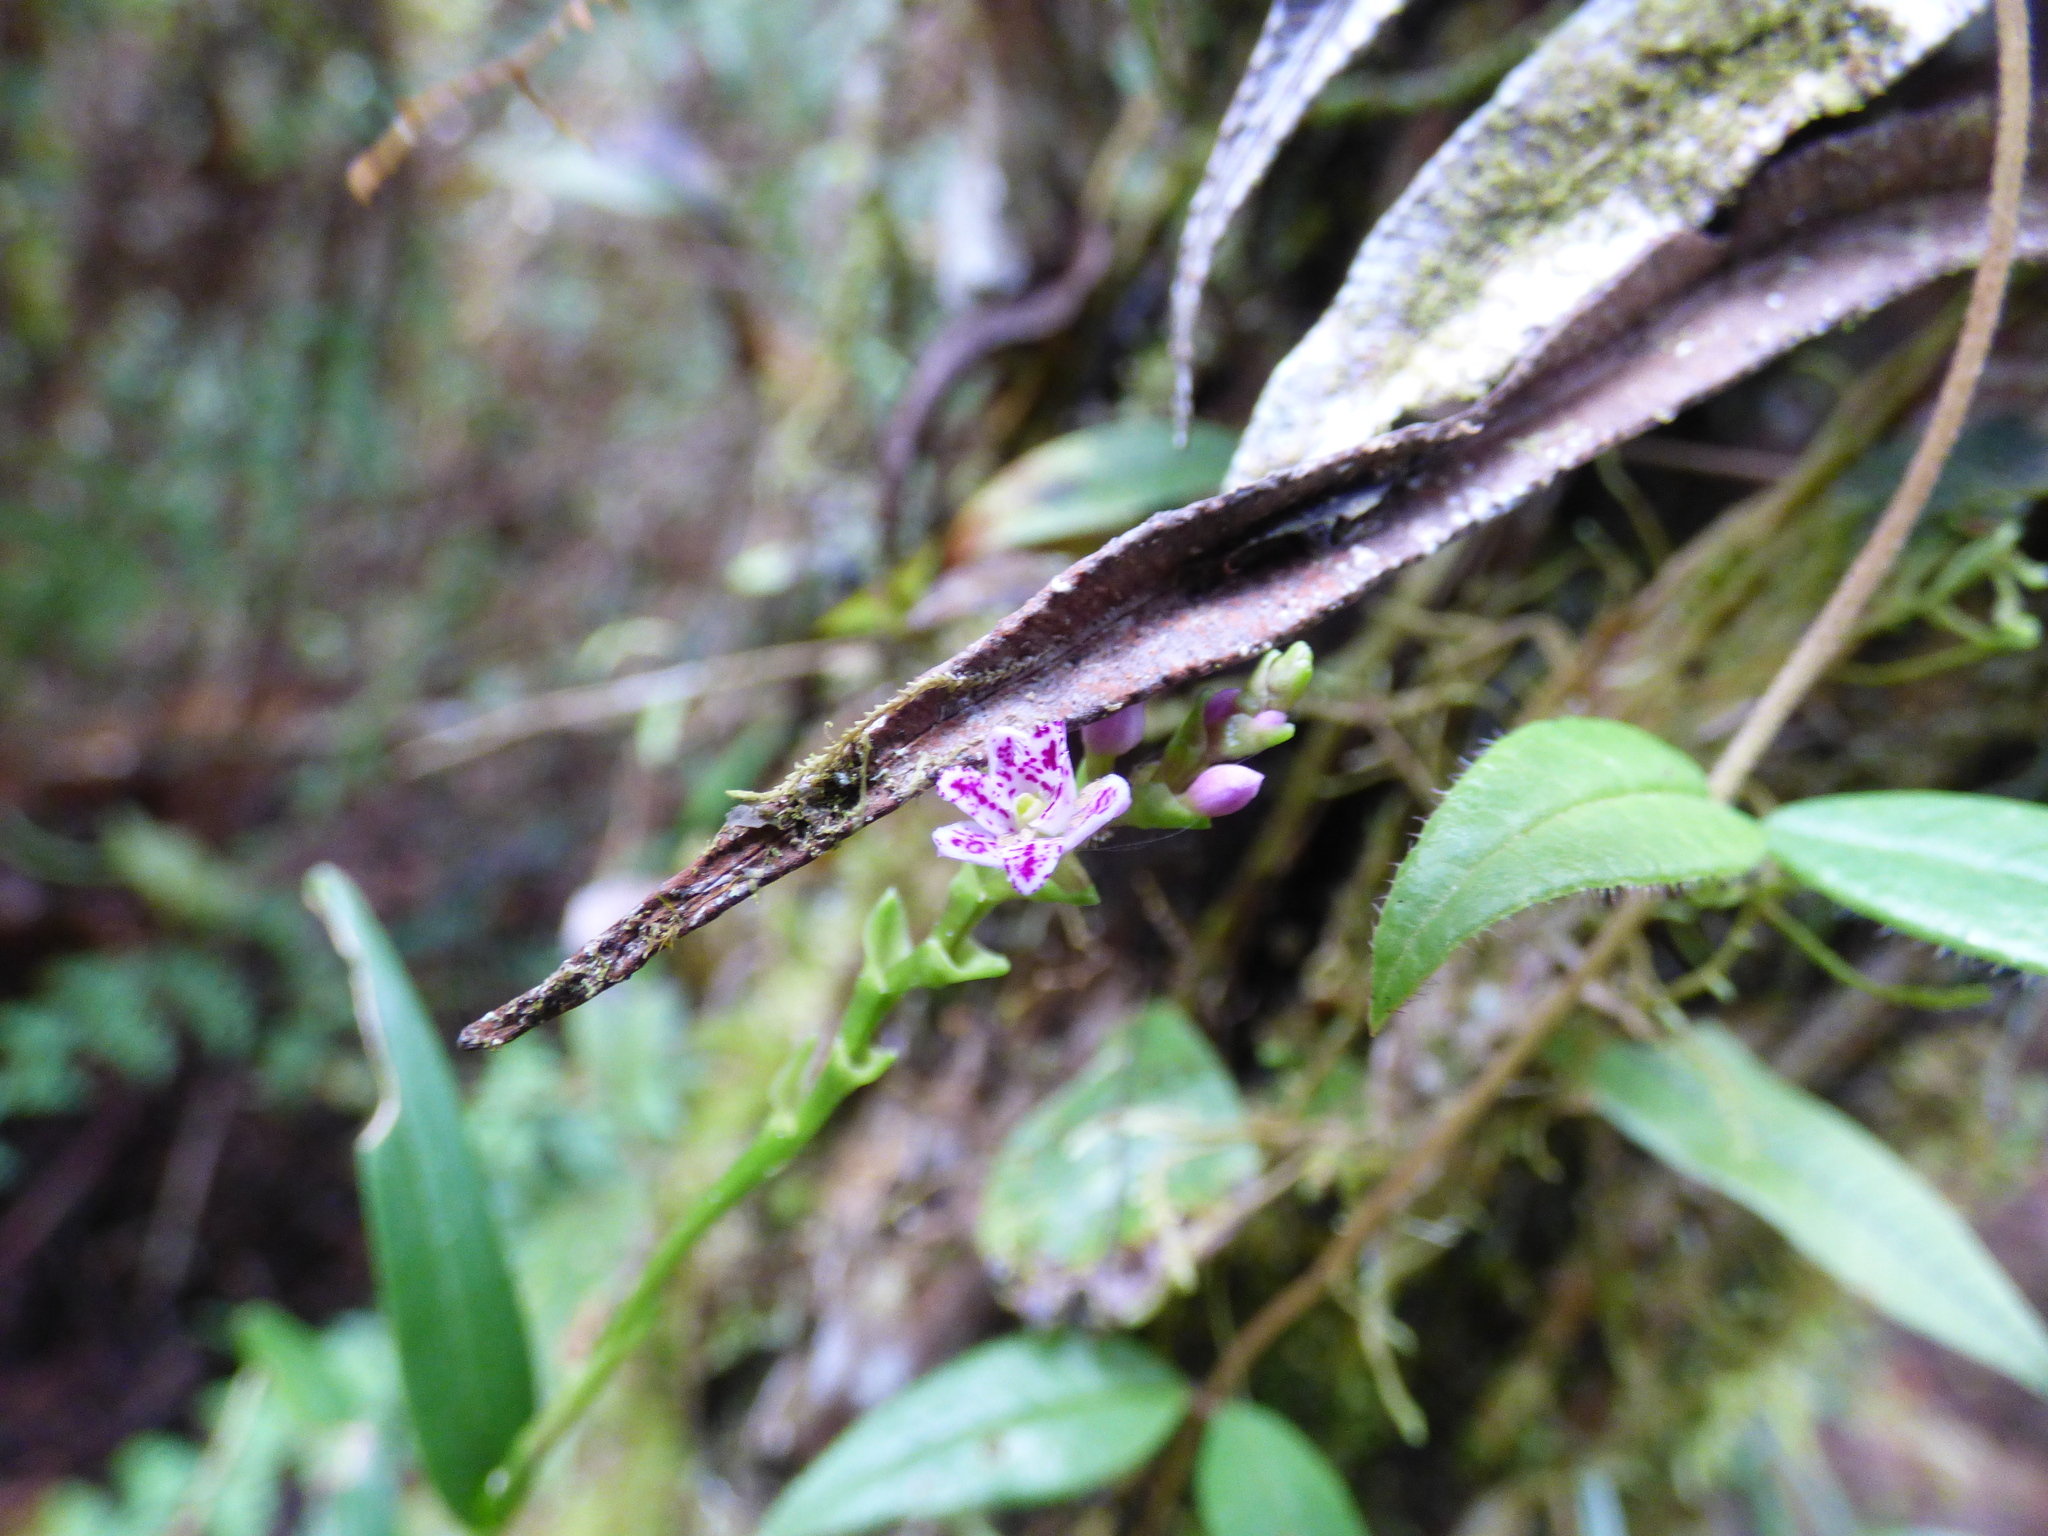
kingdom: Plantae
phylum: Tracheophyta
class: Liliopsida
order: Asparagales
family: Orchidaceae
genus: Epidendrum
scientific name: Epidendrum fimbriatum
